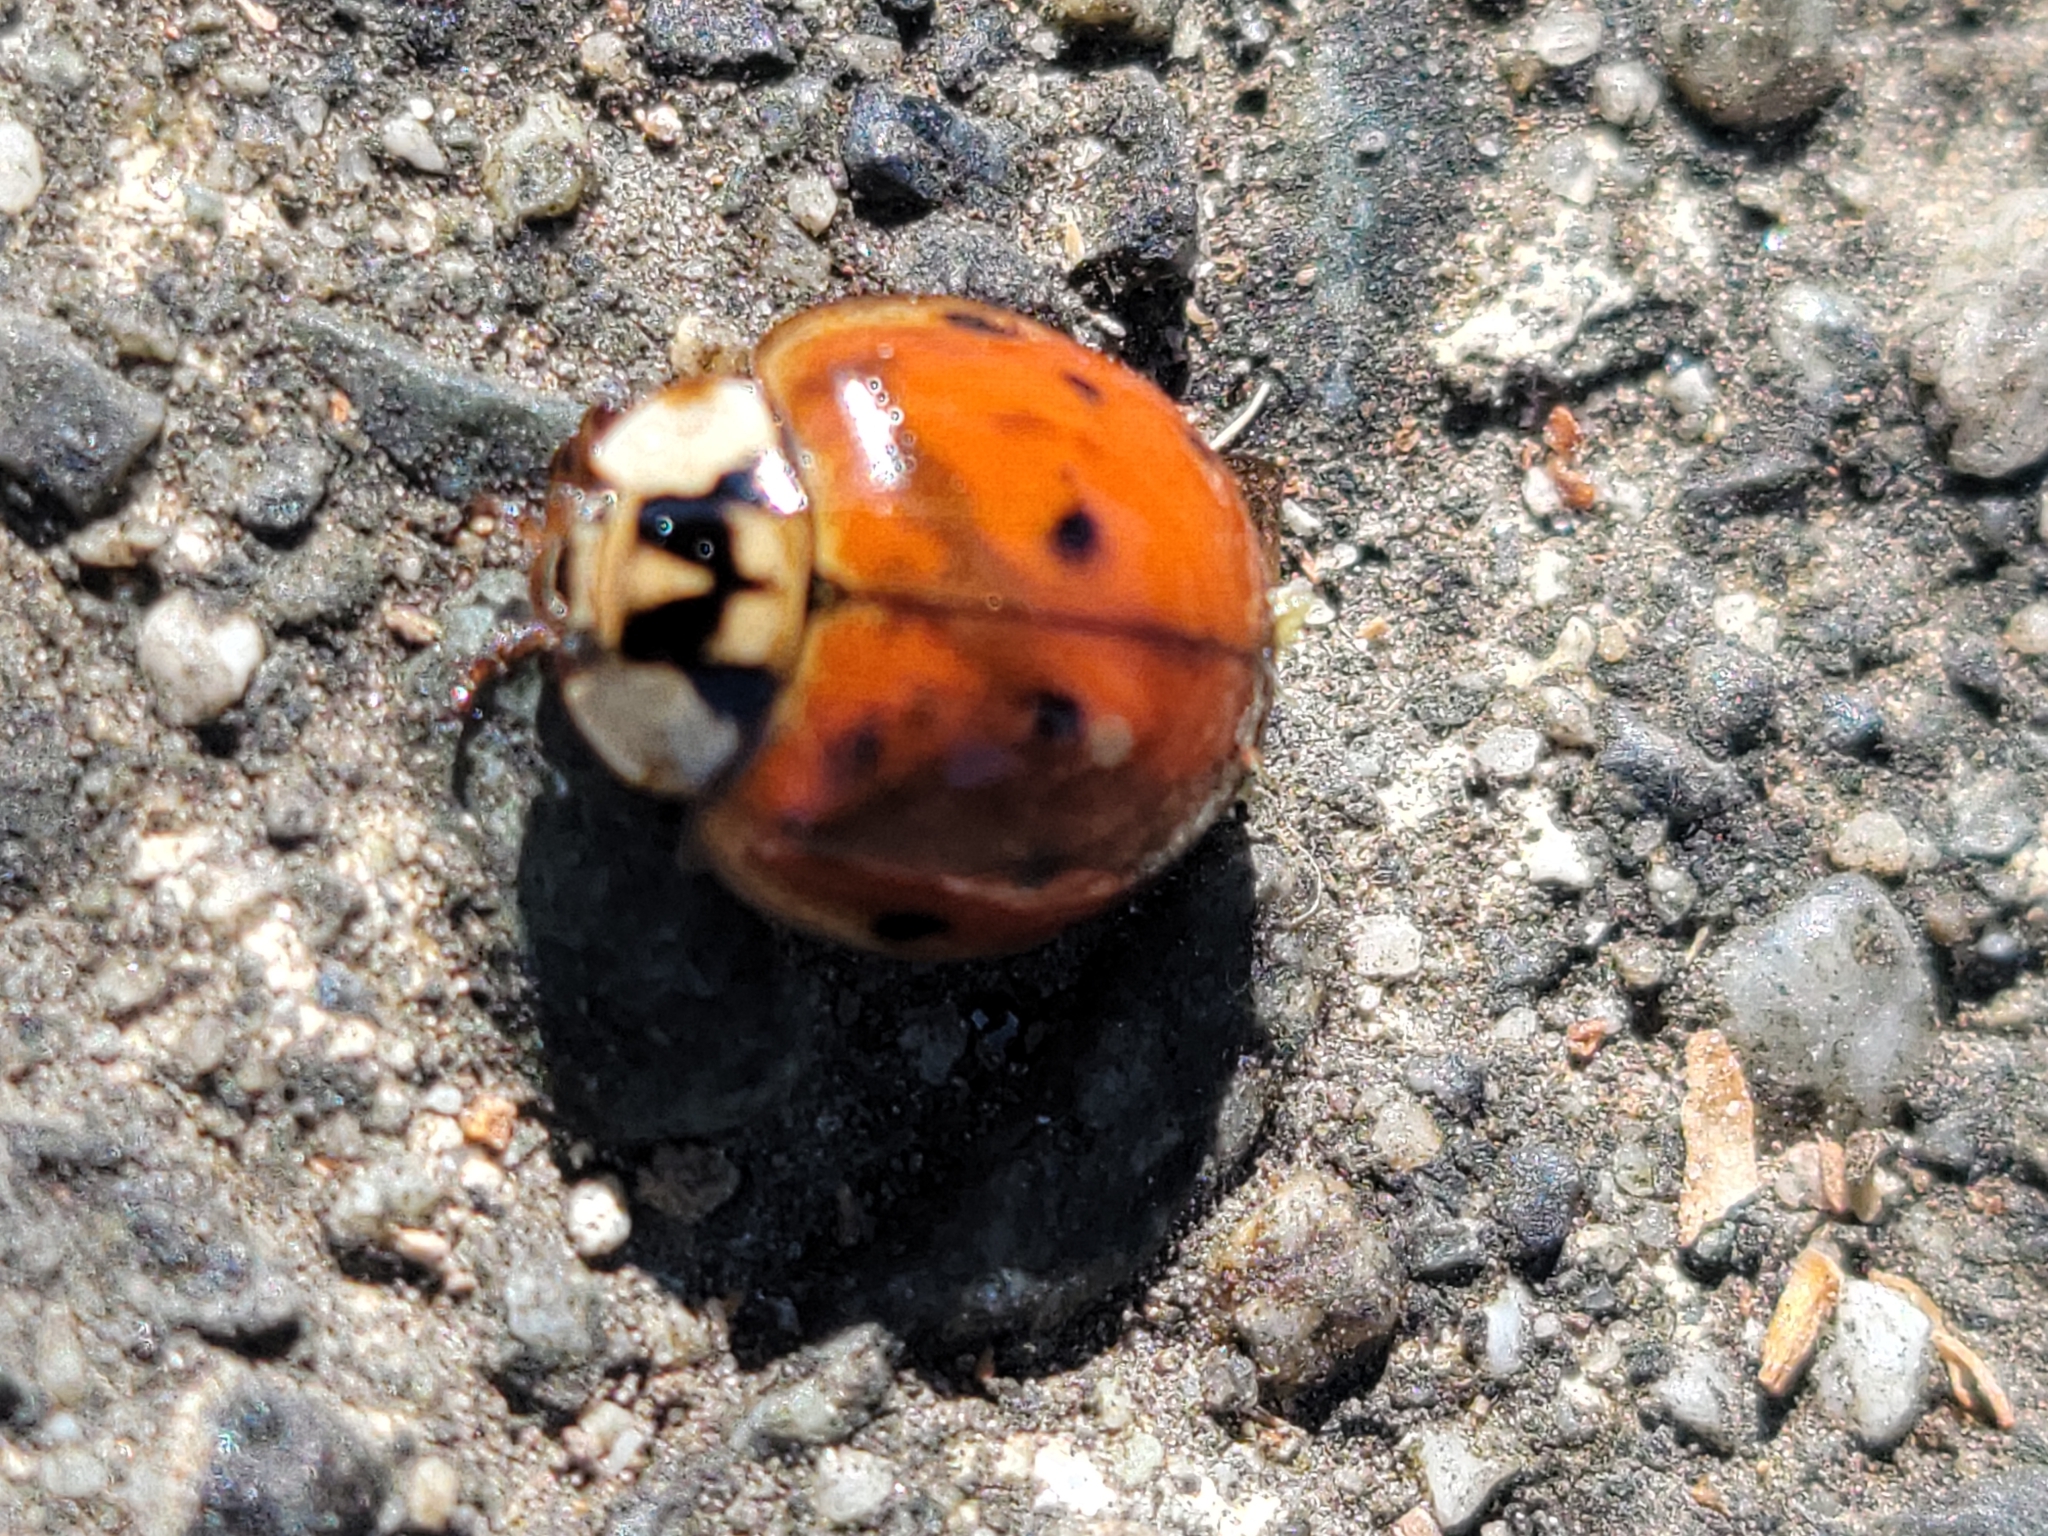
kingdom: Animalia
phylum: Arthropoda
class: Insecta
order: Coleoptera
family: Coccinellidae
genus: Harmonia
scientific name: Harmonia axyridis
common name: Harlequin ladybird
